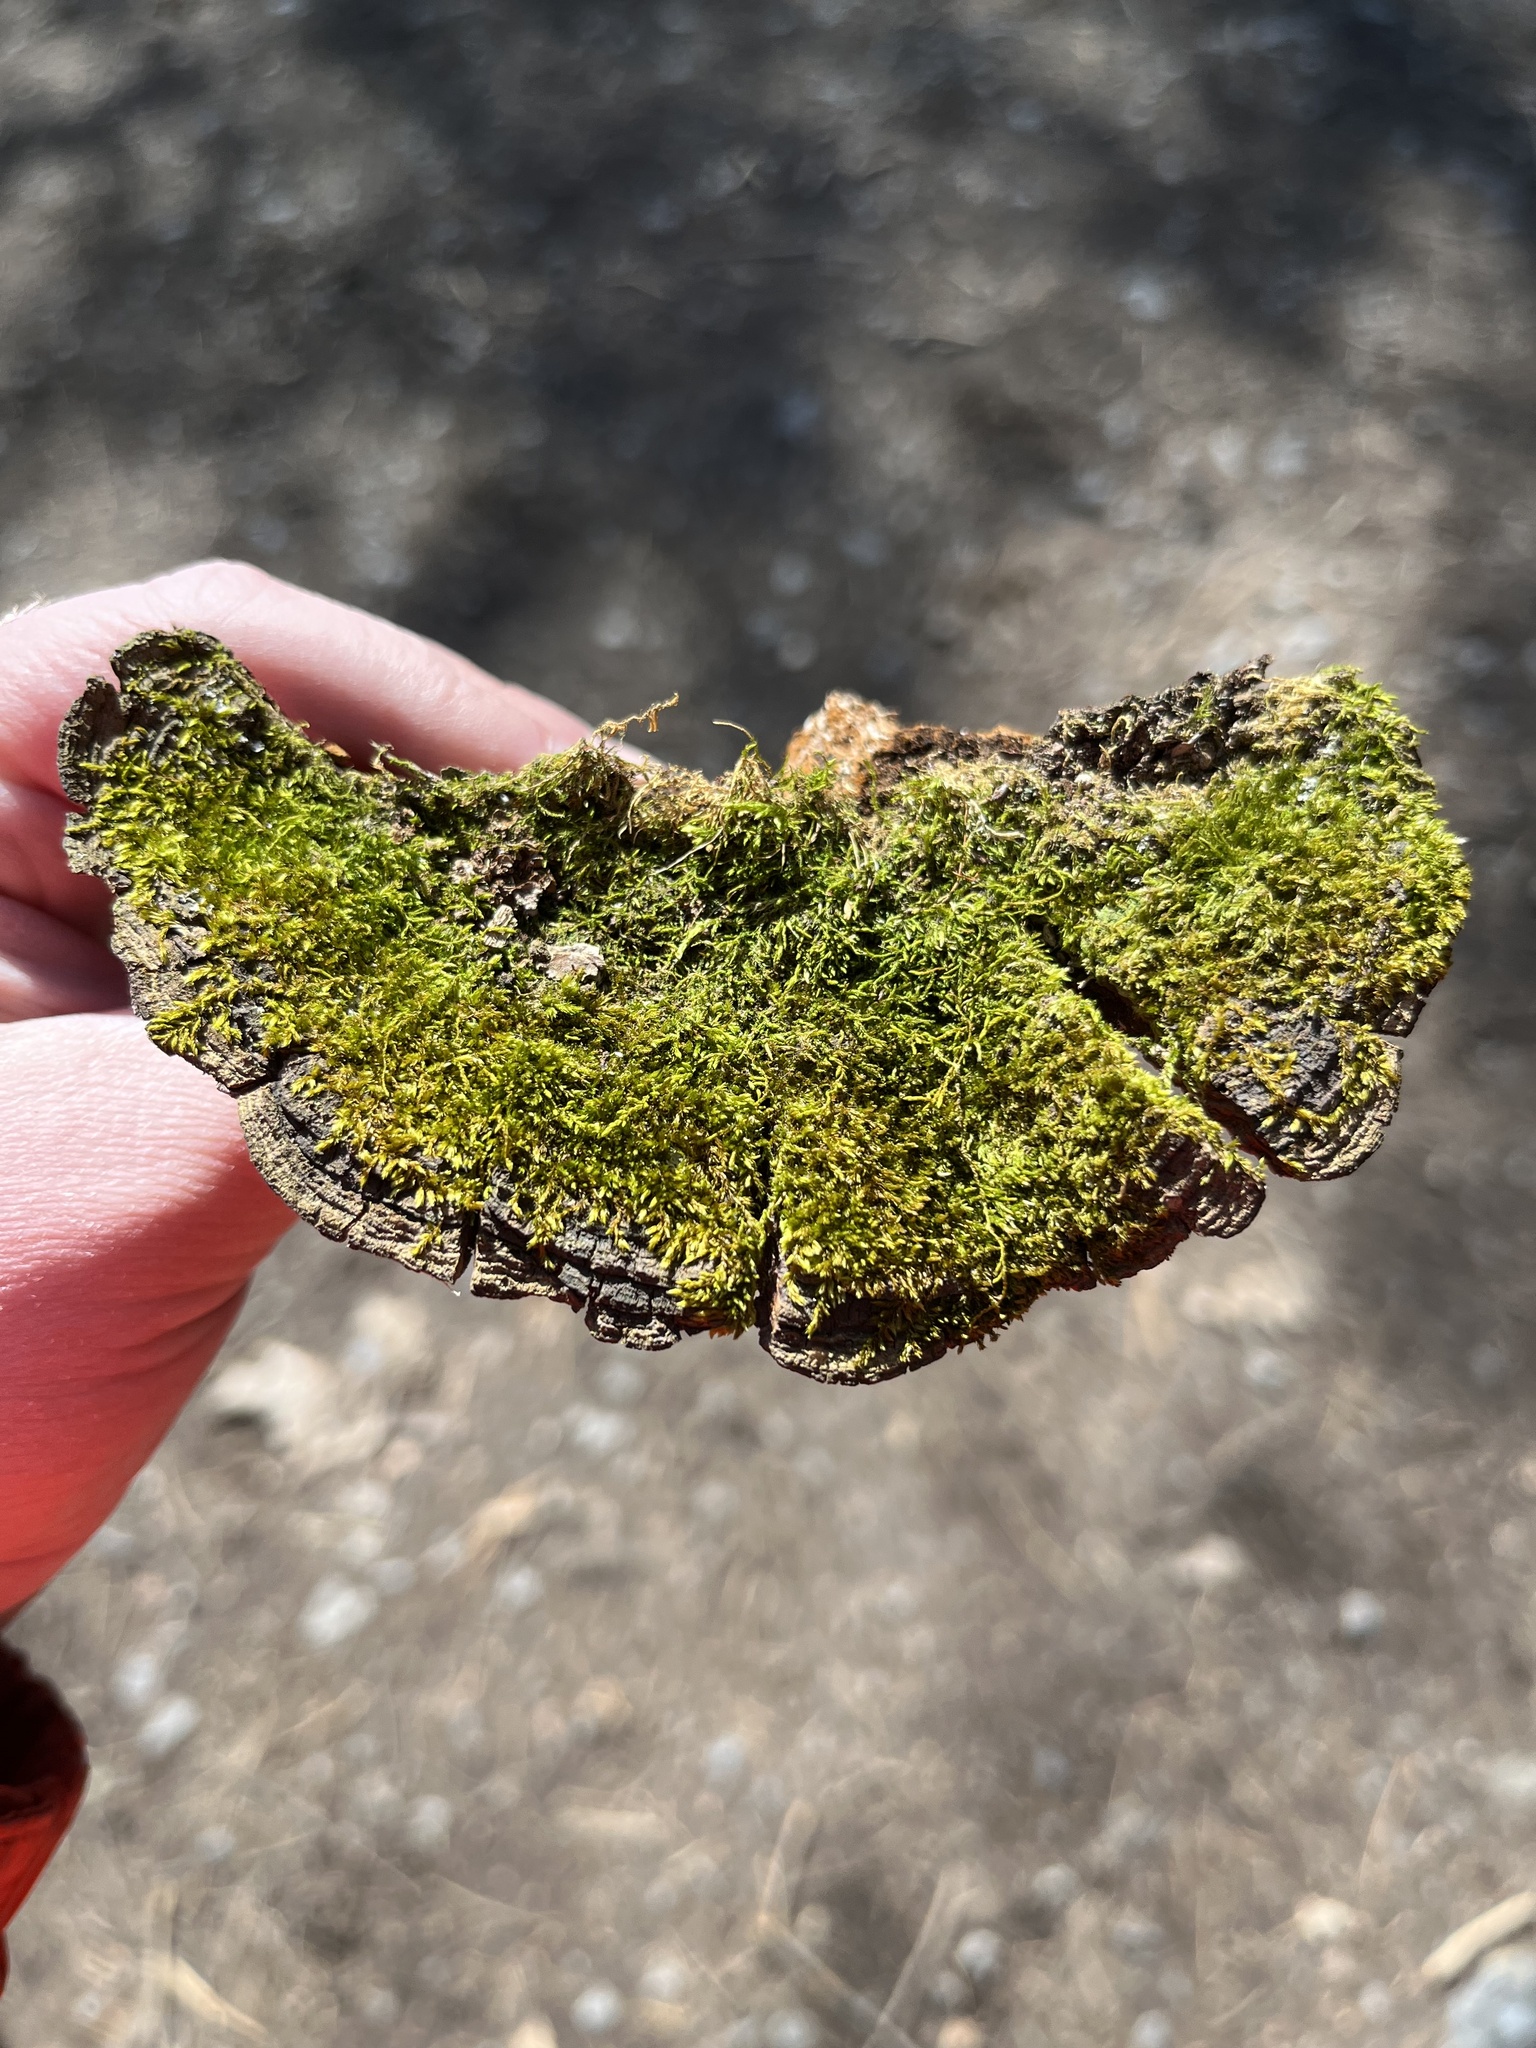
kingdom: Fungi
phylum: Basidiomycota
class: Agaricomycetes
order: Hymenochaetales
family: Hymenochaetaceae
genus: Phellinopsis
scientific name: Phellinopsis conchata
